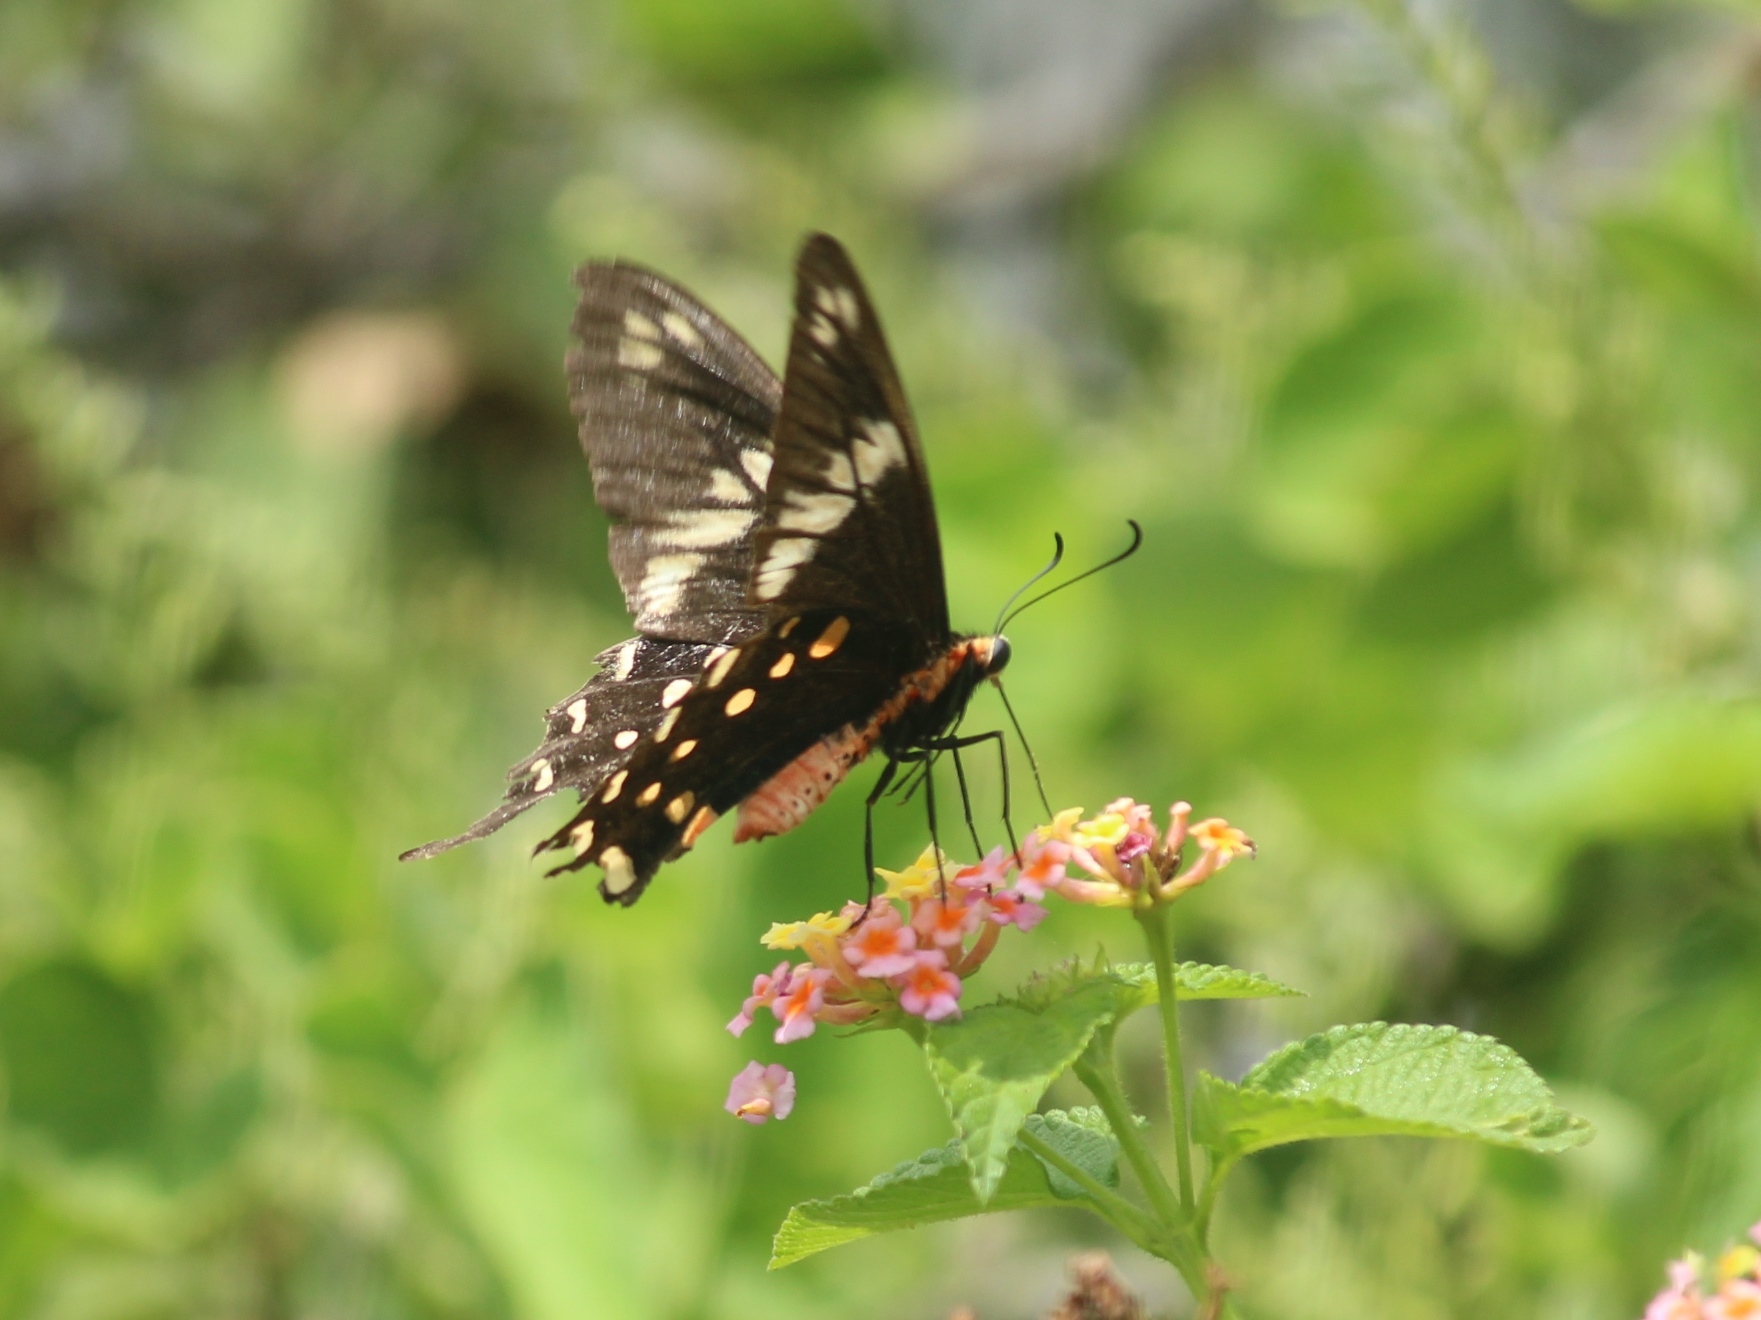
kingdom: Animalia
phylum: Arthropoda
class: Insecta
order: Lepidoptera
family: Papilionidae
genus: Pachliopta
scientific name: Pachliopta hector
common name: Crimson rose
